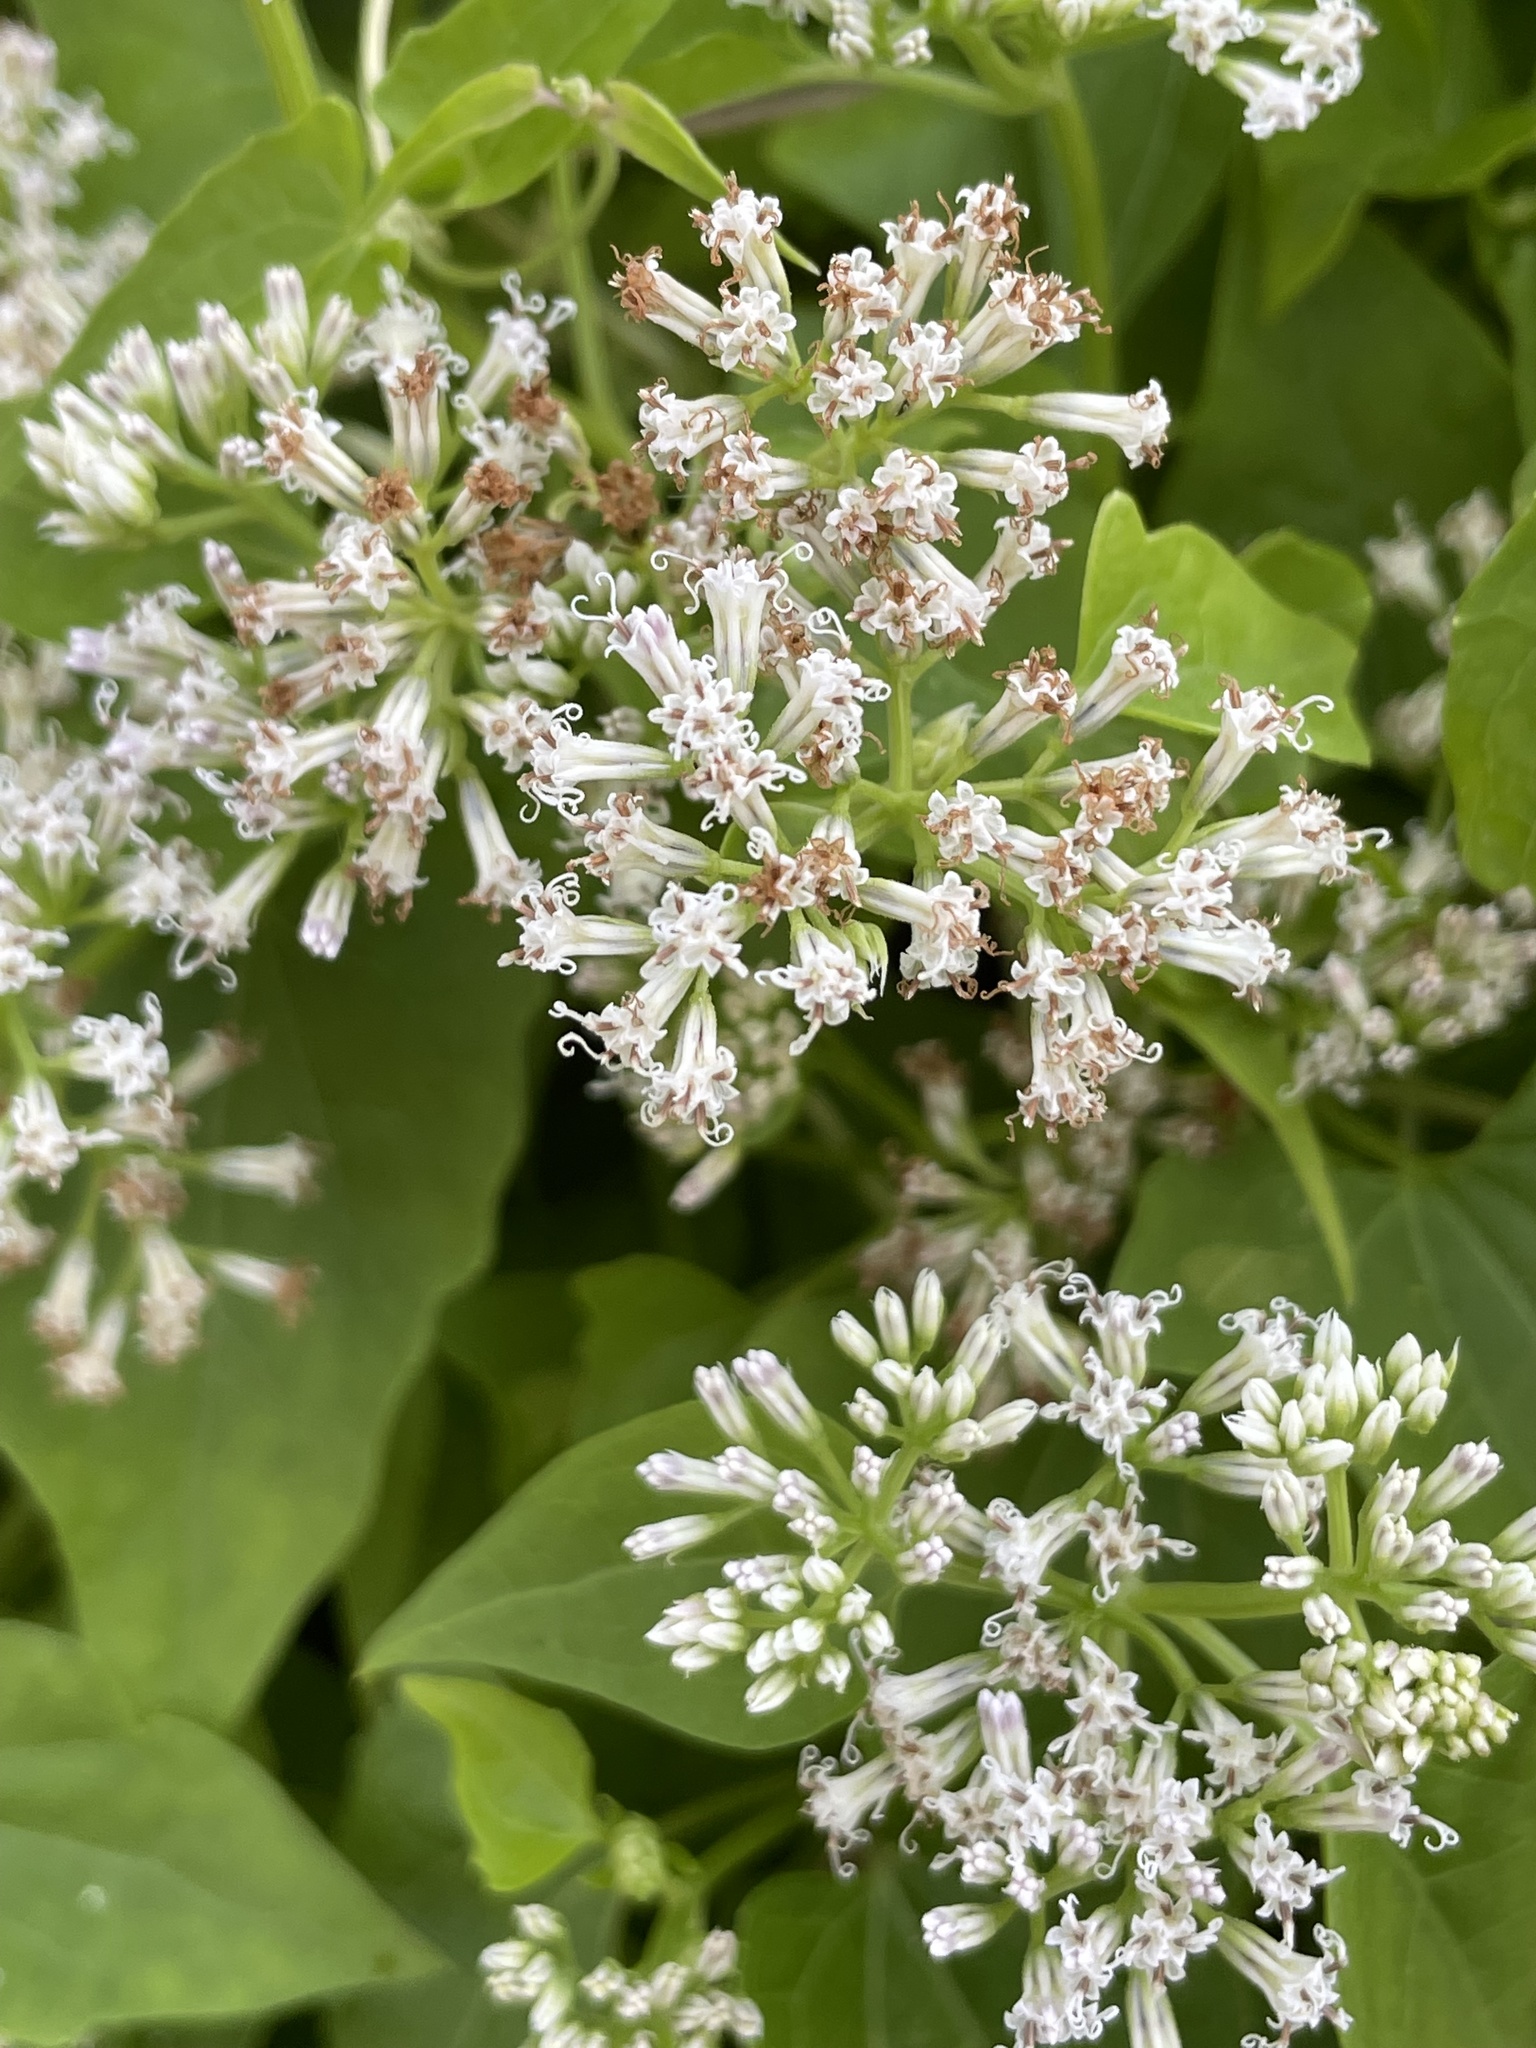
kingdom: Plantae
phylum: Tracheophyta
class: Magnoliopsida
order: Asterales
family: Asteraceae
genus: Mikania
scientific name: Mikania scandens
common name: Climbing hempvine
